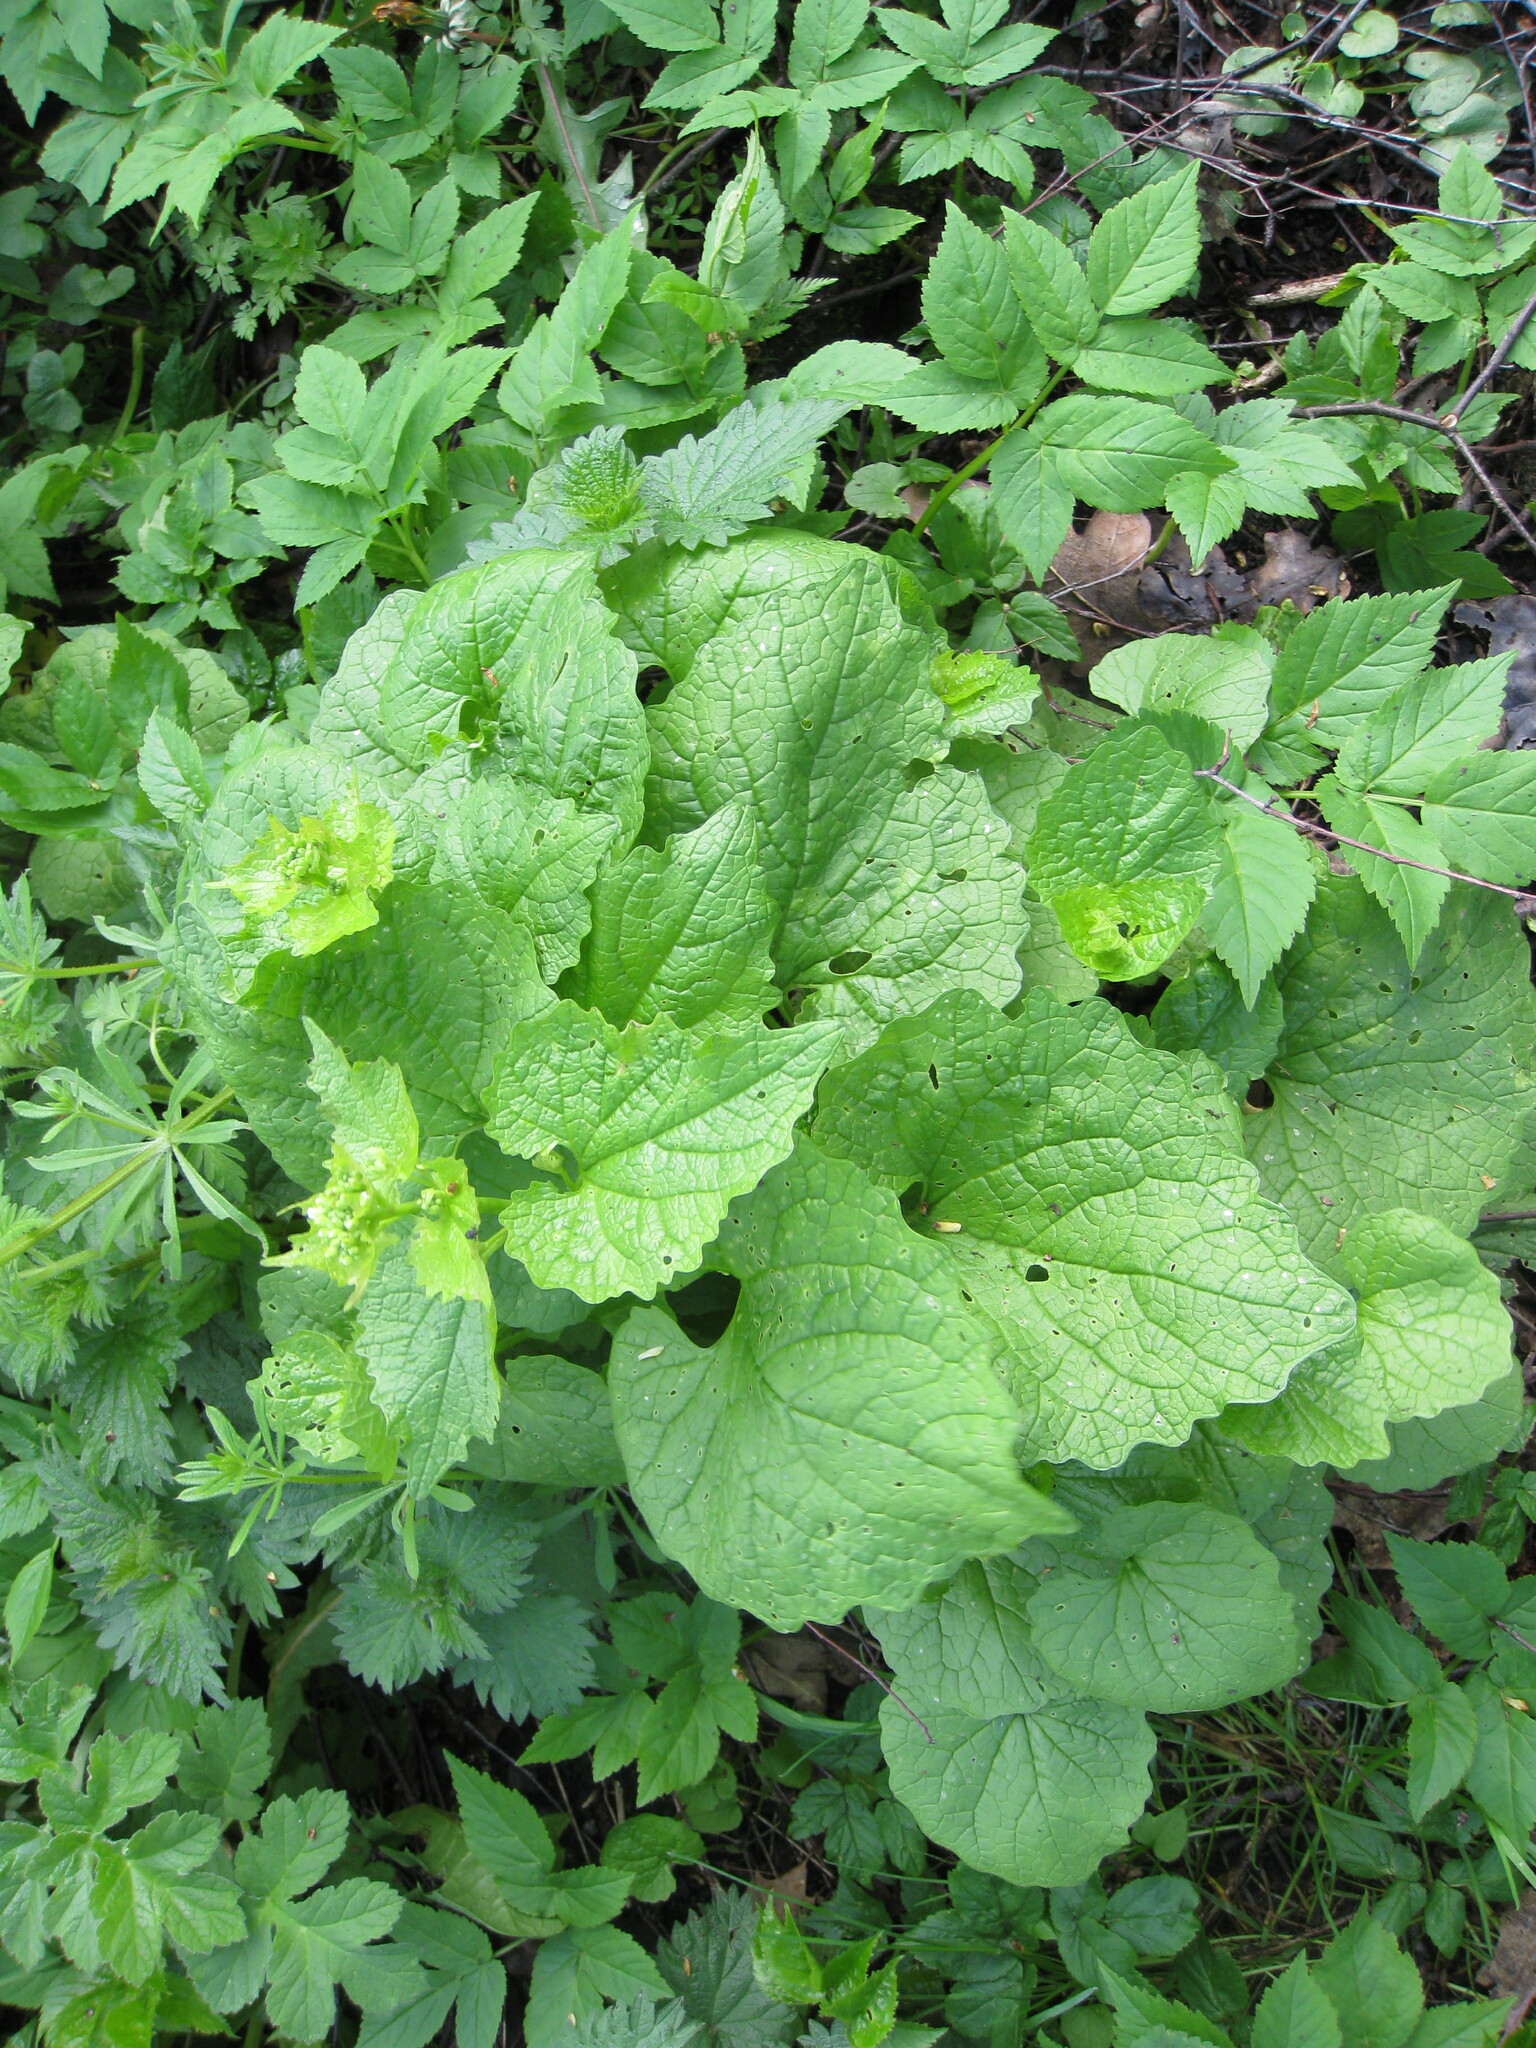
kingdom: Plantae
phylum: Tracheophyta
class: Magnoliopsida
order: Brassicales
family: Brassicaceae
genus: Alliaria
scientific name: Alliaria petiolata
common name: Garlic mustard
